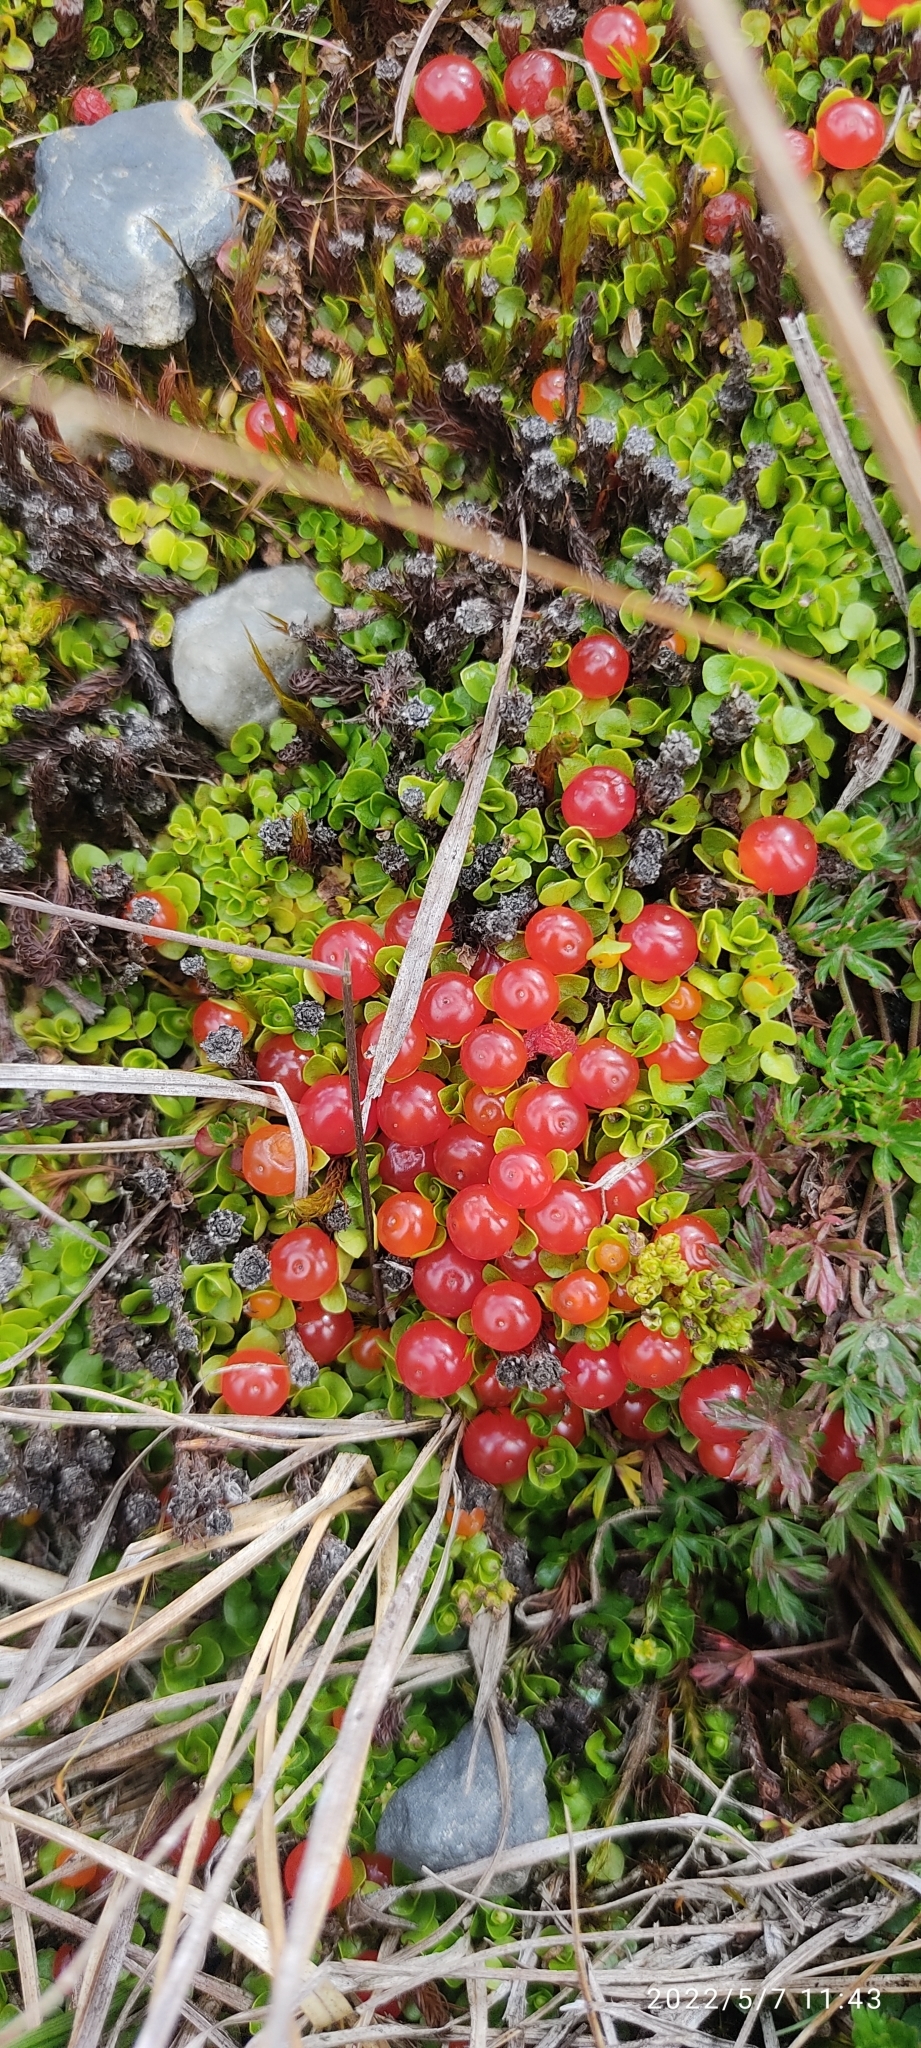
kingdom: Plantae
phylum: Tracheophyta
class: Magnoliopsida
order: Gentianales
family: Rubiaceae
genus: Nertera
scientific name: Nertera granadensis
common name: Beadplant
